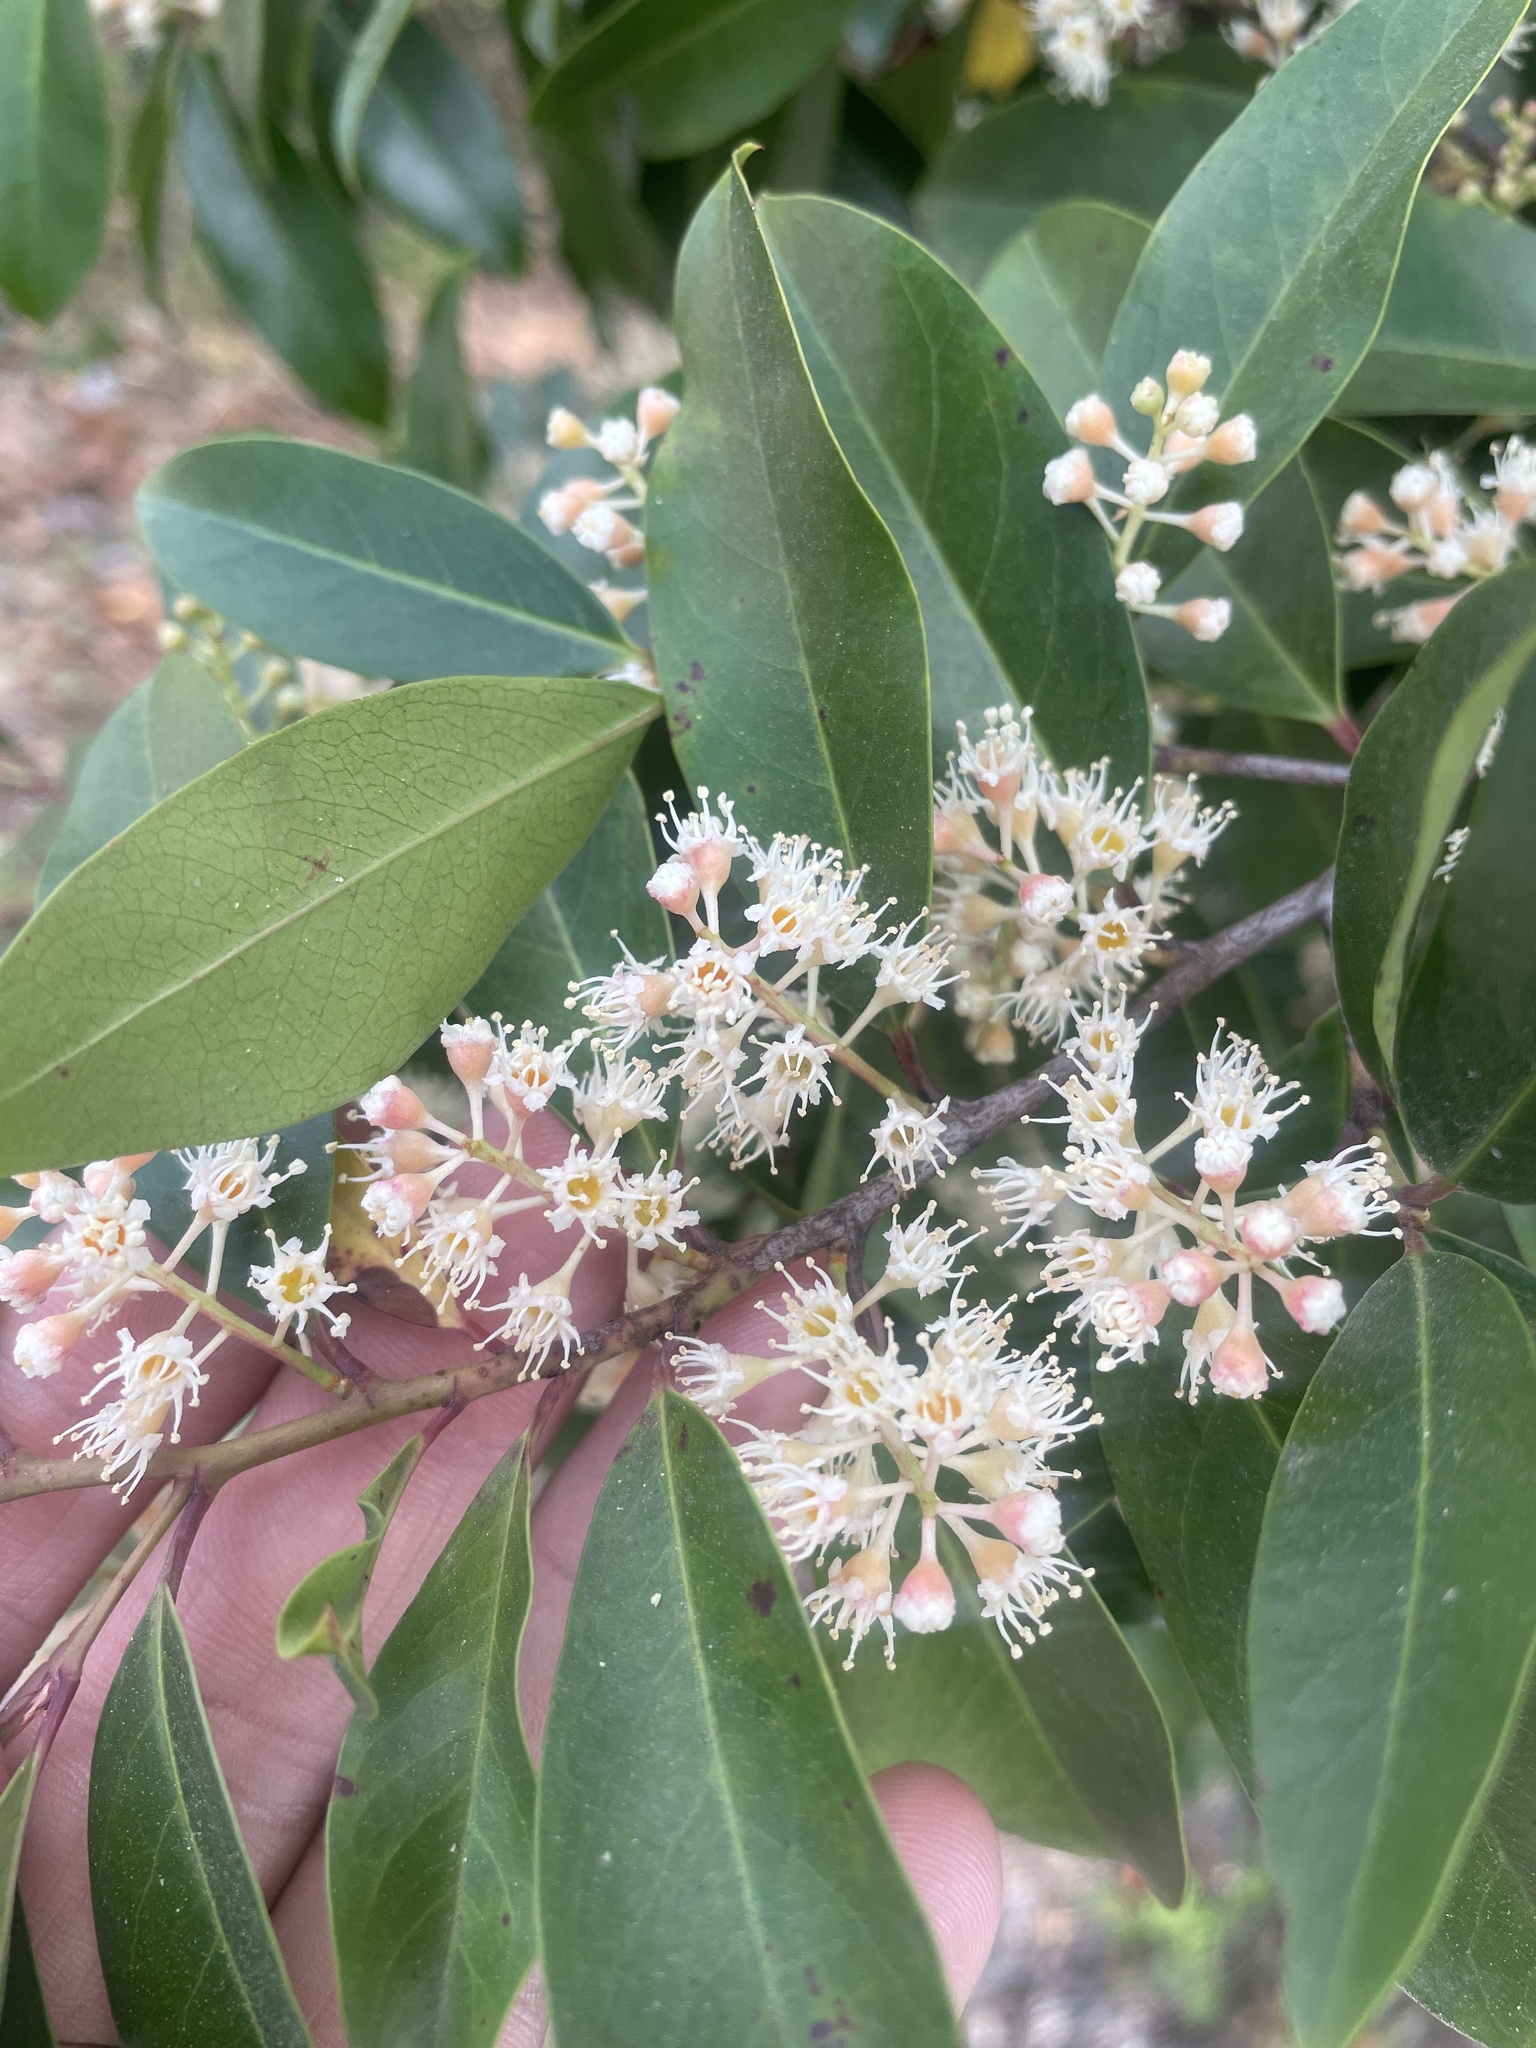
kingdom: Plantae
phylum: Tracheophyta
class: Magnoliopsida
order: Rosales
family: Rosaceae
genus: Prunus
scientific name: Prunus caroliniana
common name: Carolina laurel cherry
